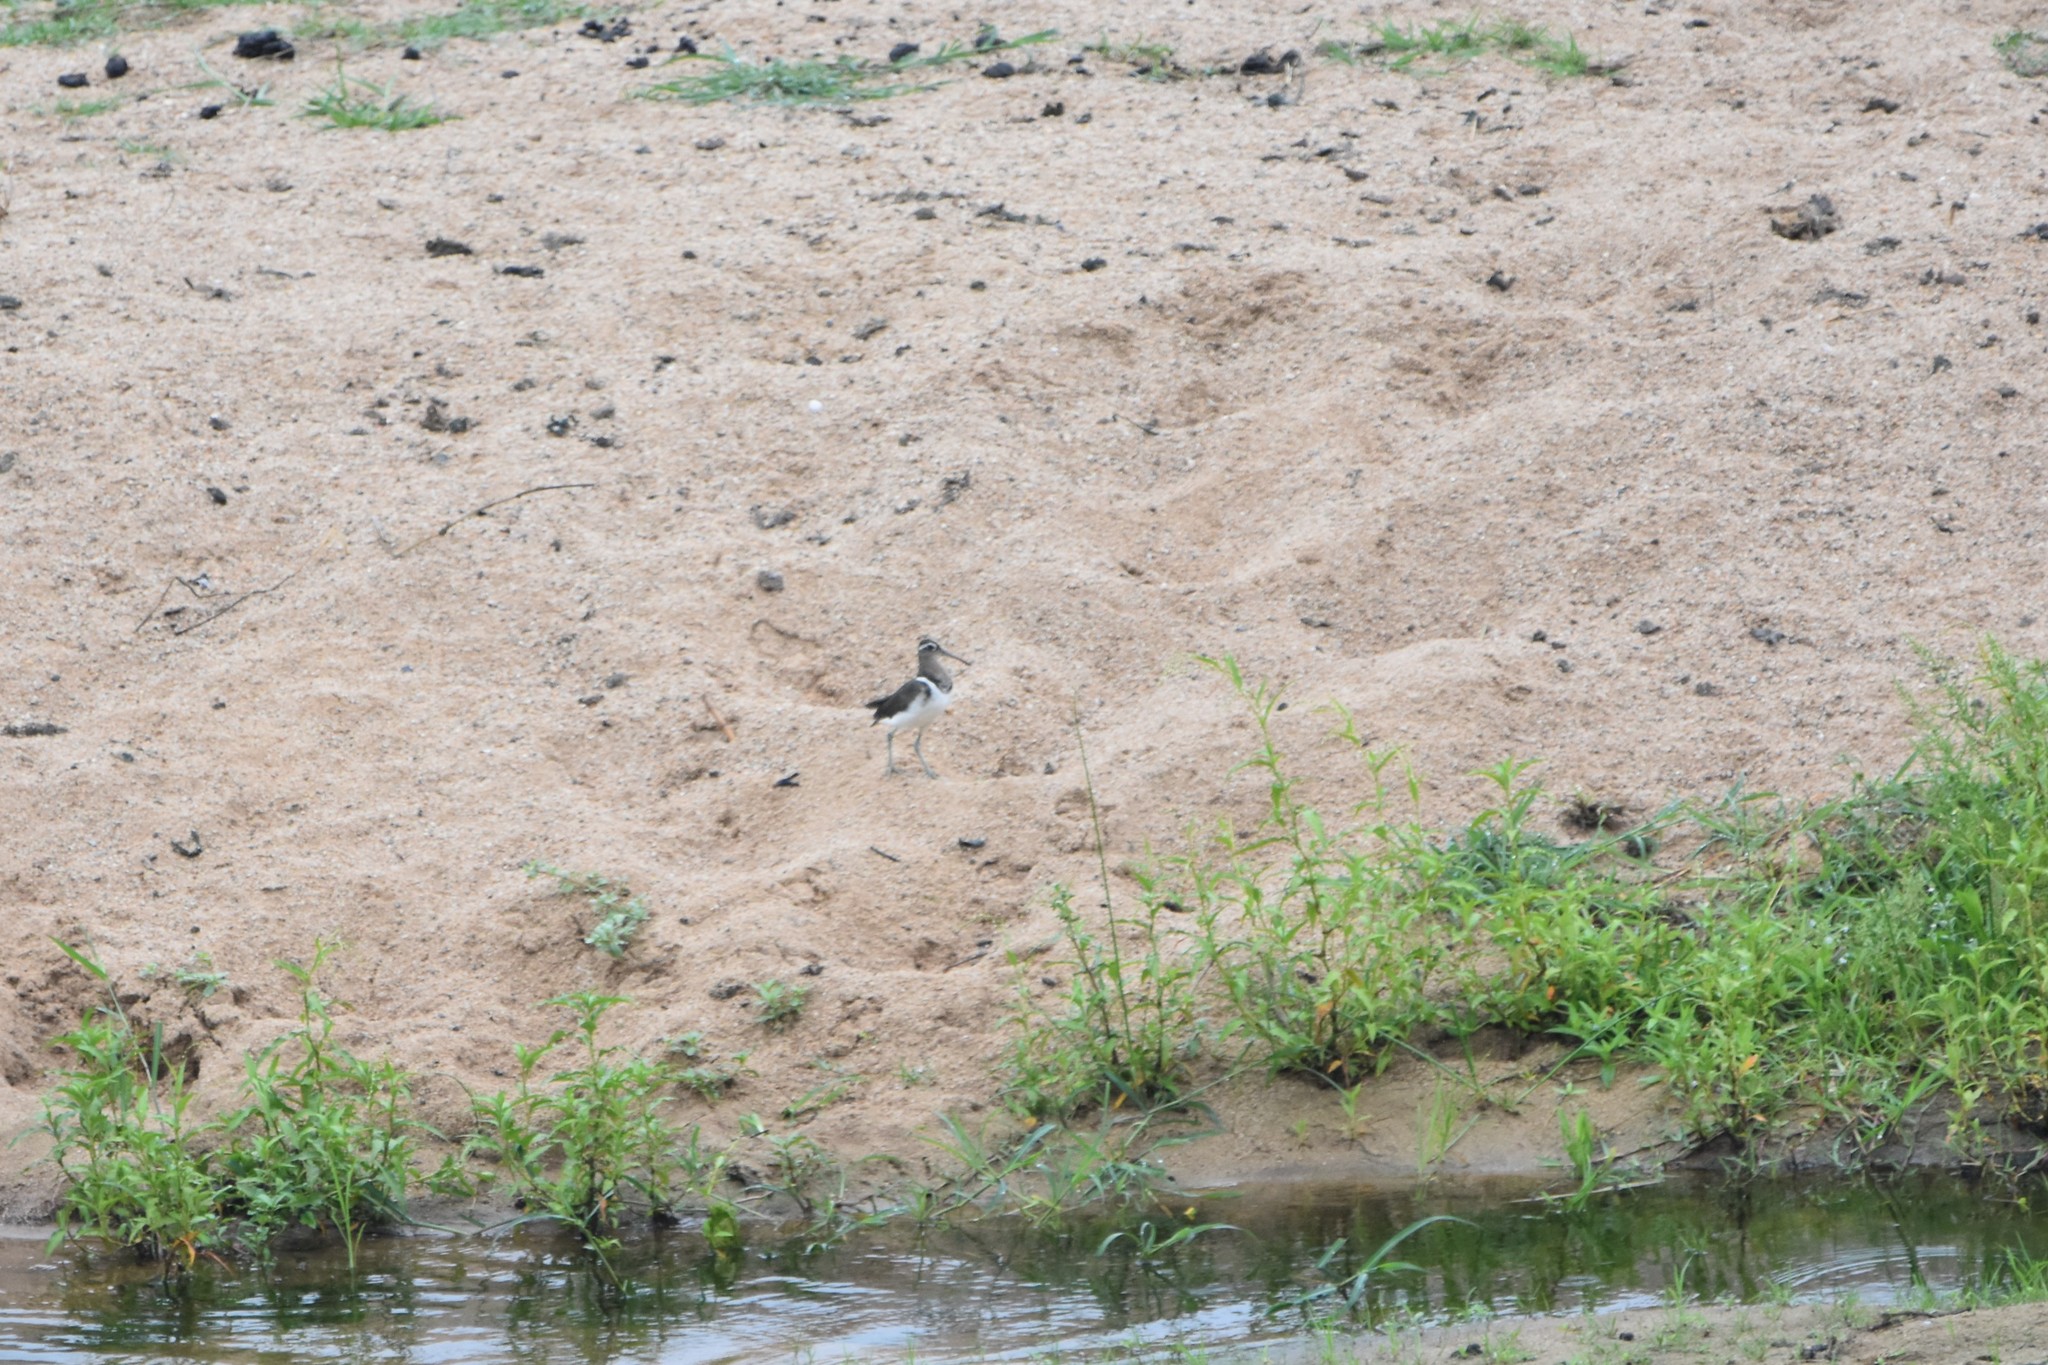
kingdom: Animalia
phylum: Chordata
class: Aves
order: Charadriiformes
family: Rostratulidae
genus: Rostratula
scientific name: Rostratula benghalensis
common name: Greater painted-snipe
